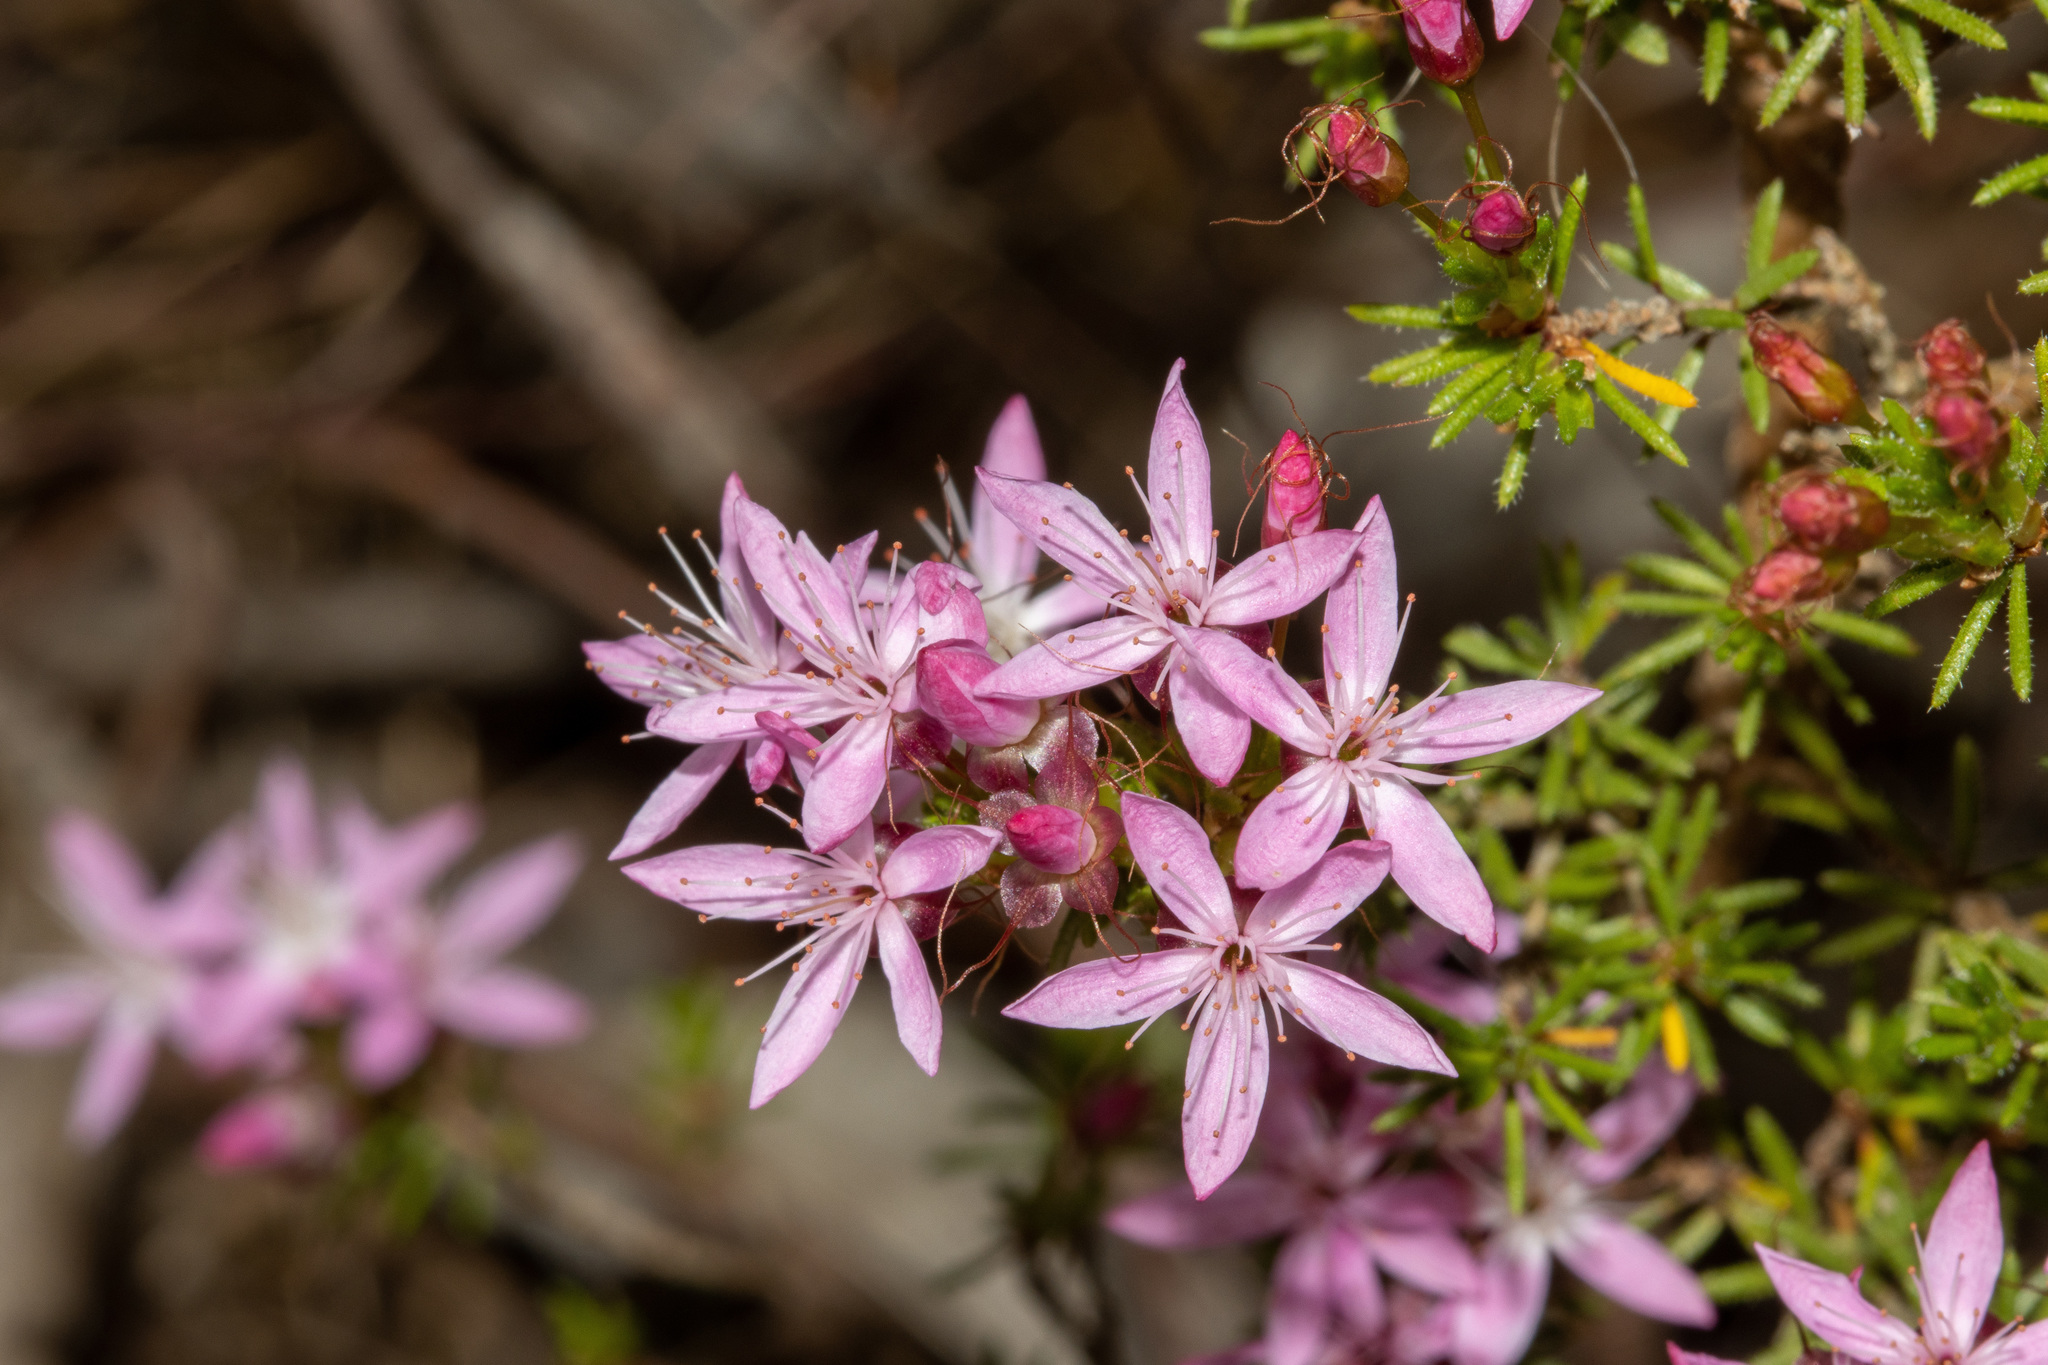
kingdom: Plantae
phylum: Tracheophyta
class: Magnoliopsida
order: Myrtales
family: Myrtaceae
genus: Calytrix
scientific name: Calytrix tetragona
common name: Common fringe myrtle
